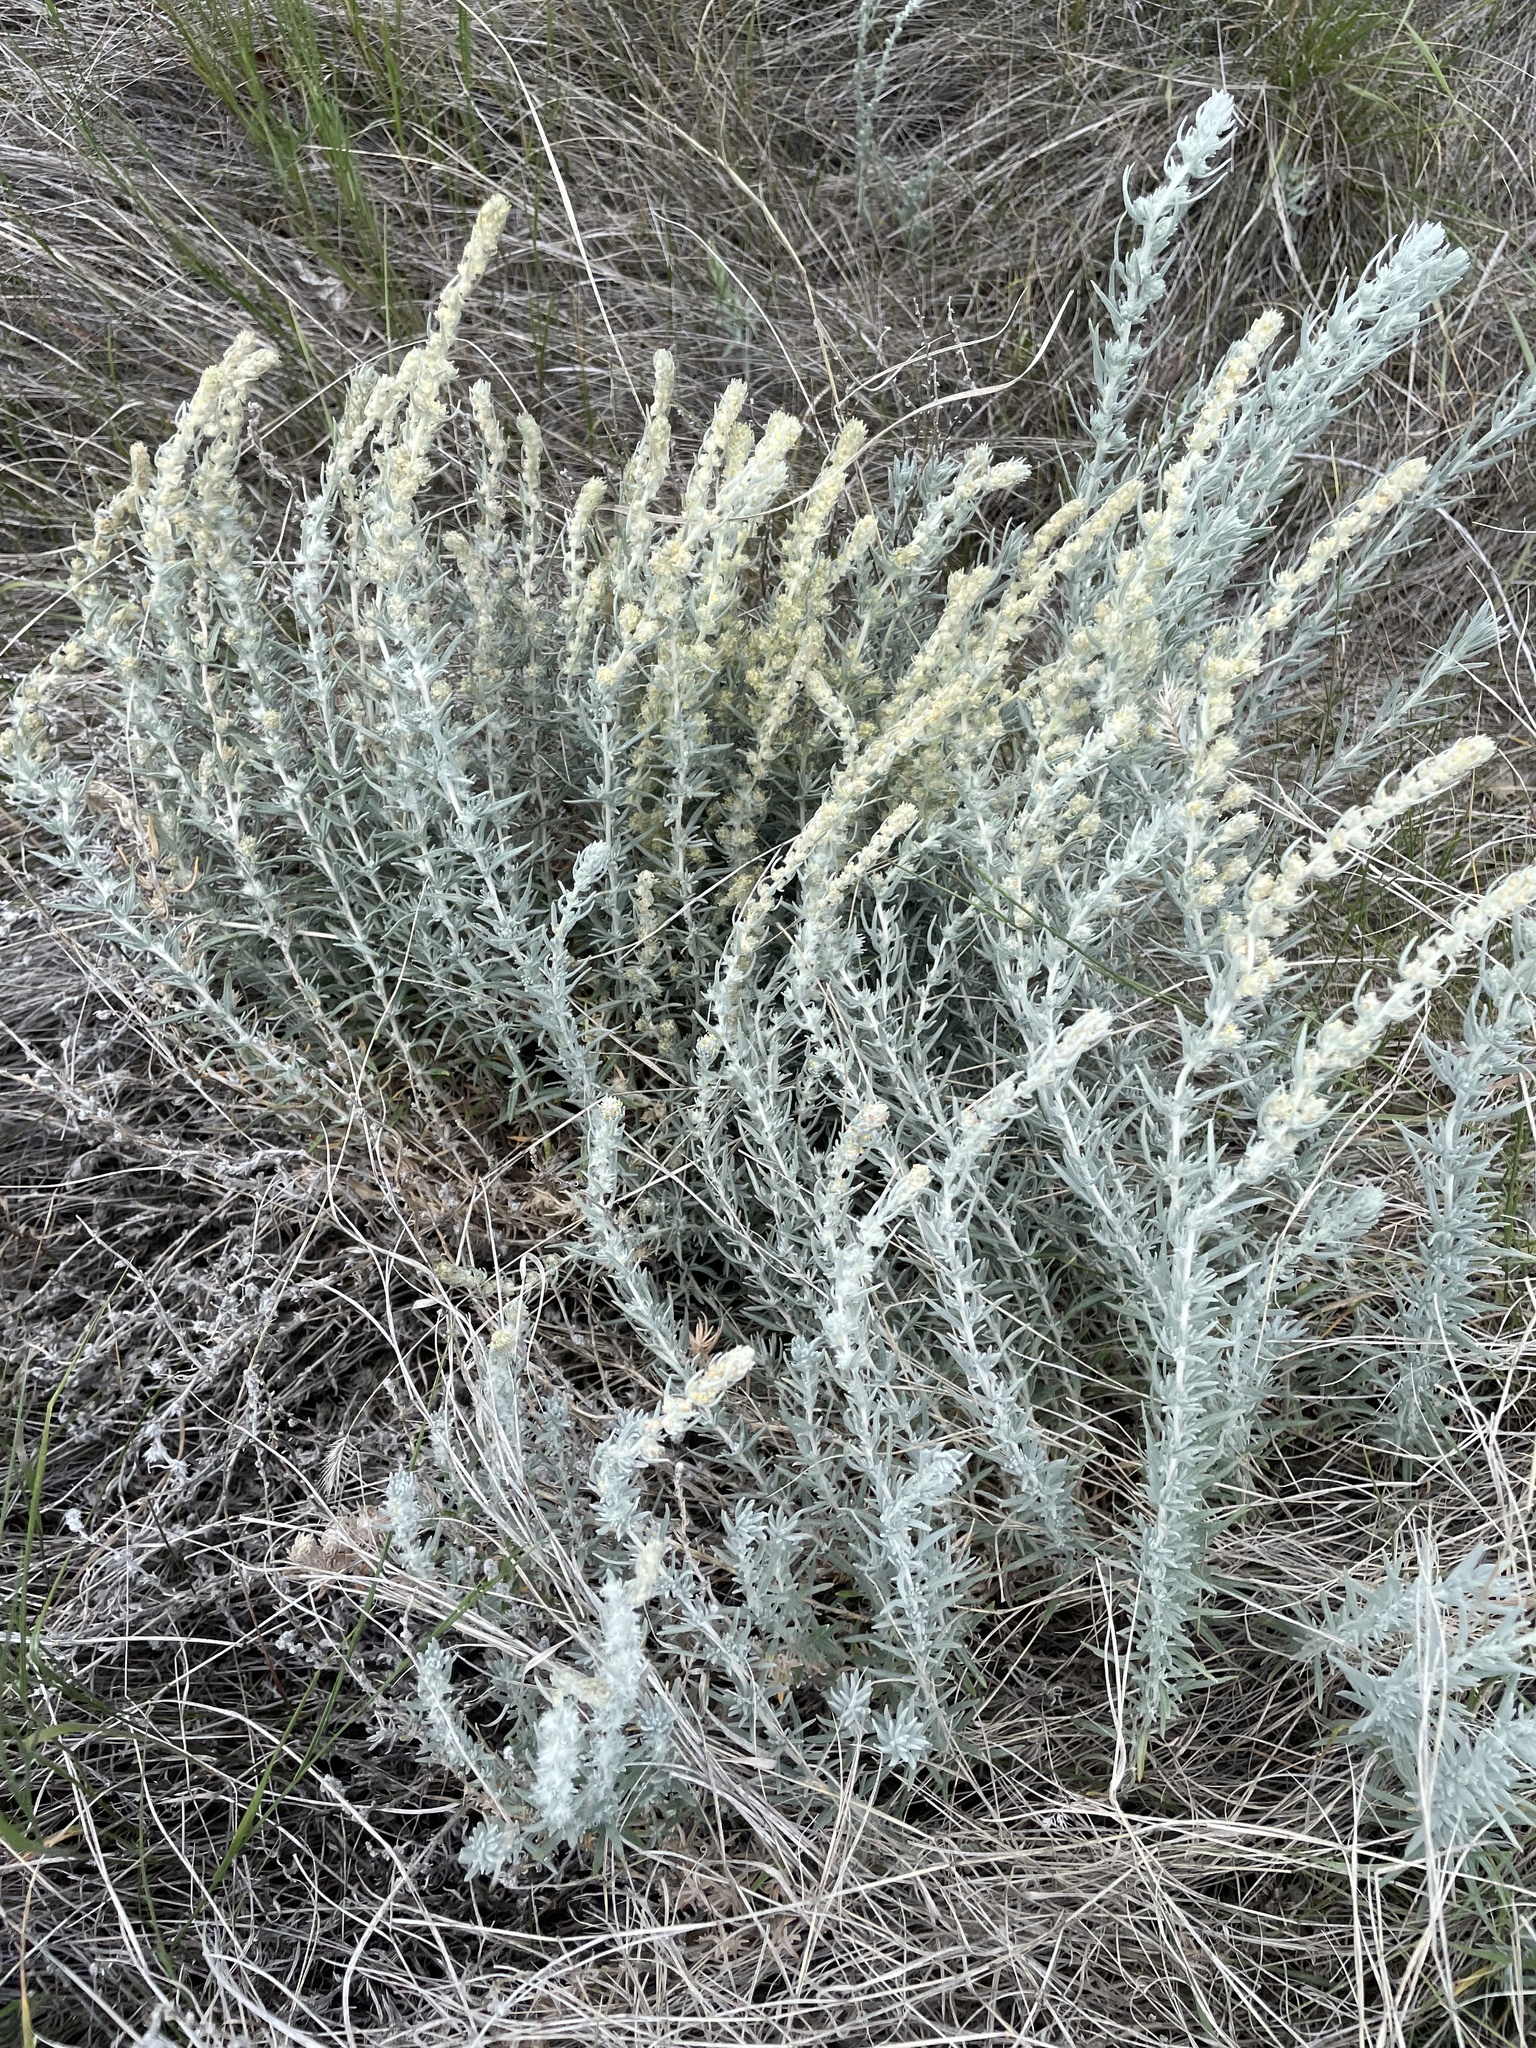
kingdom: Plantae
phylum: Tracheophyta
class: Magnoliopsida
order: Caryophyllales
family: Amaranthaceae
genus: Krascheninnikovia
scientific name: Krascheninnikovia lanata
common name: Winterfat
